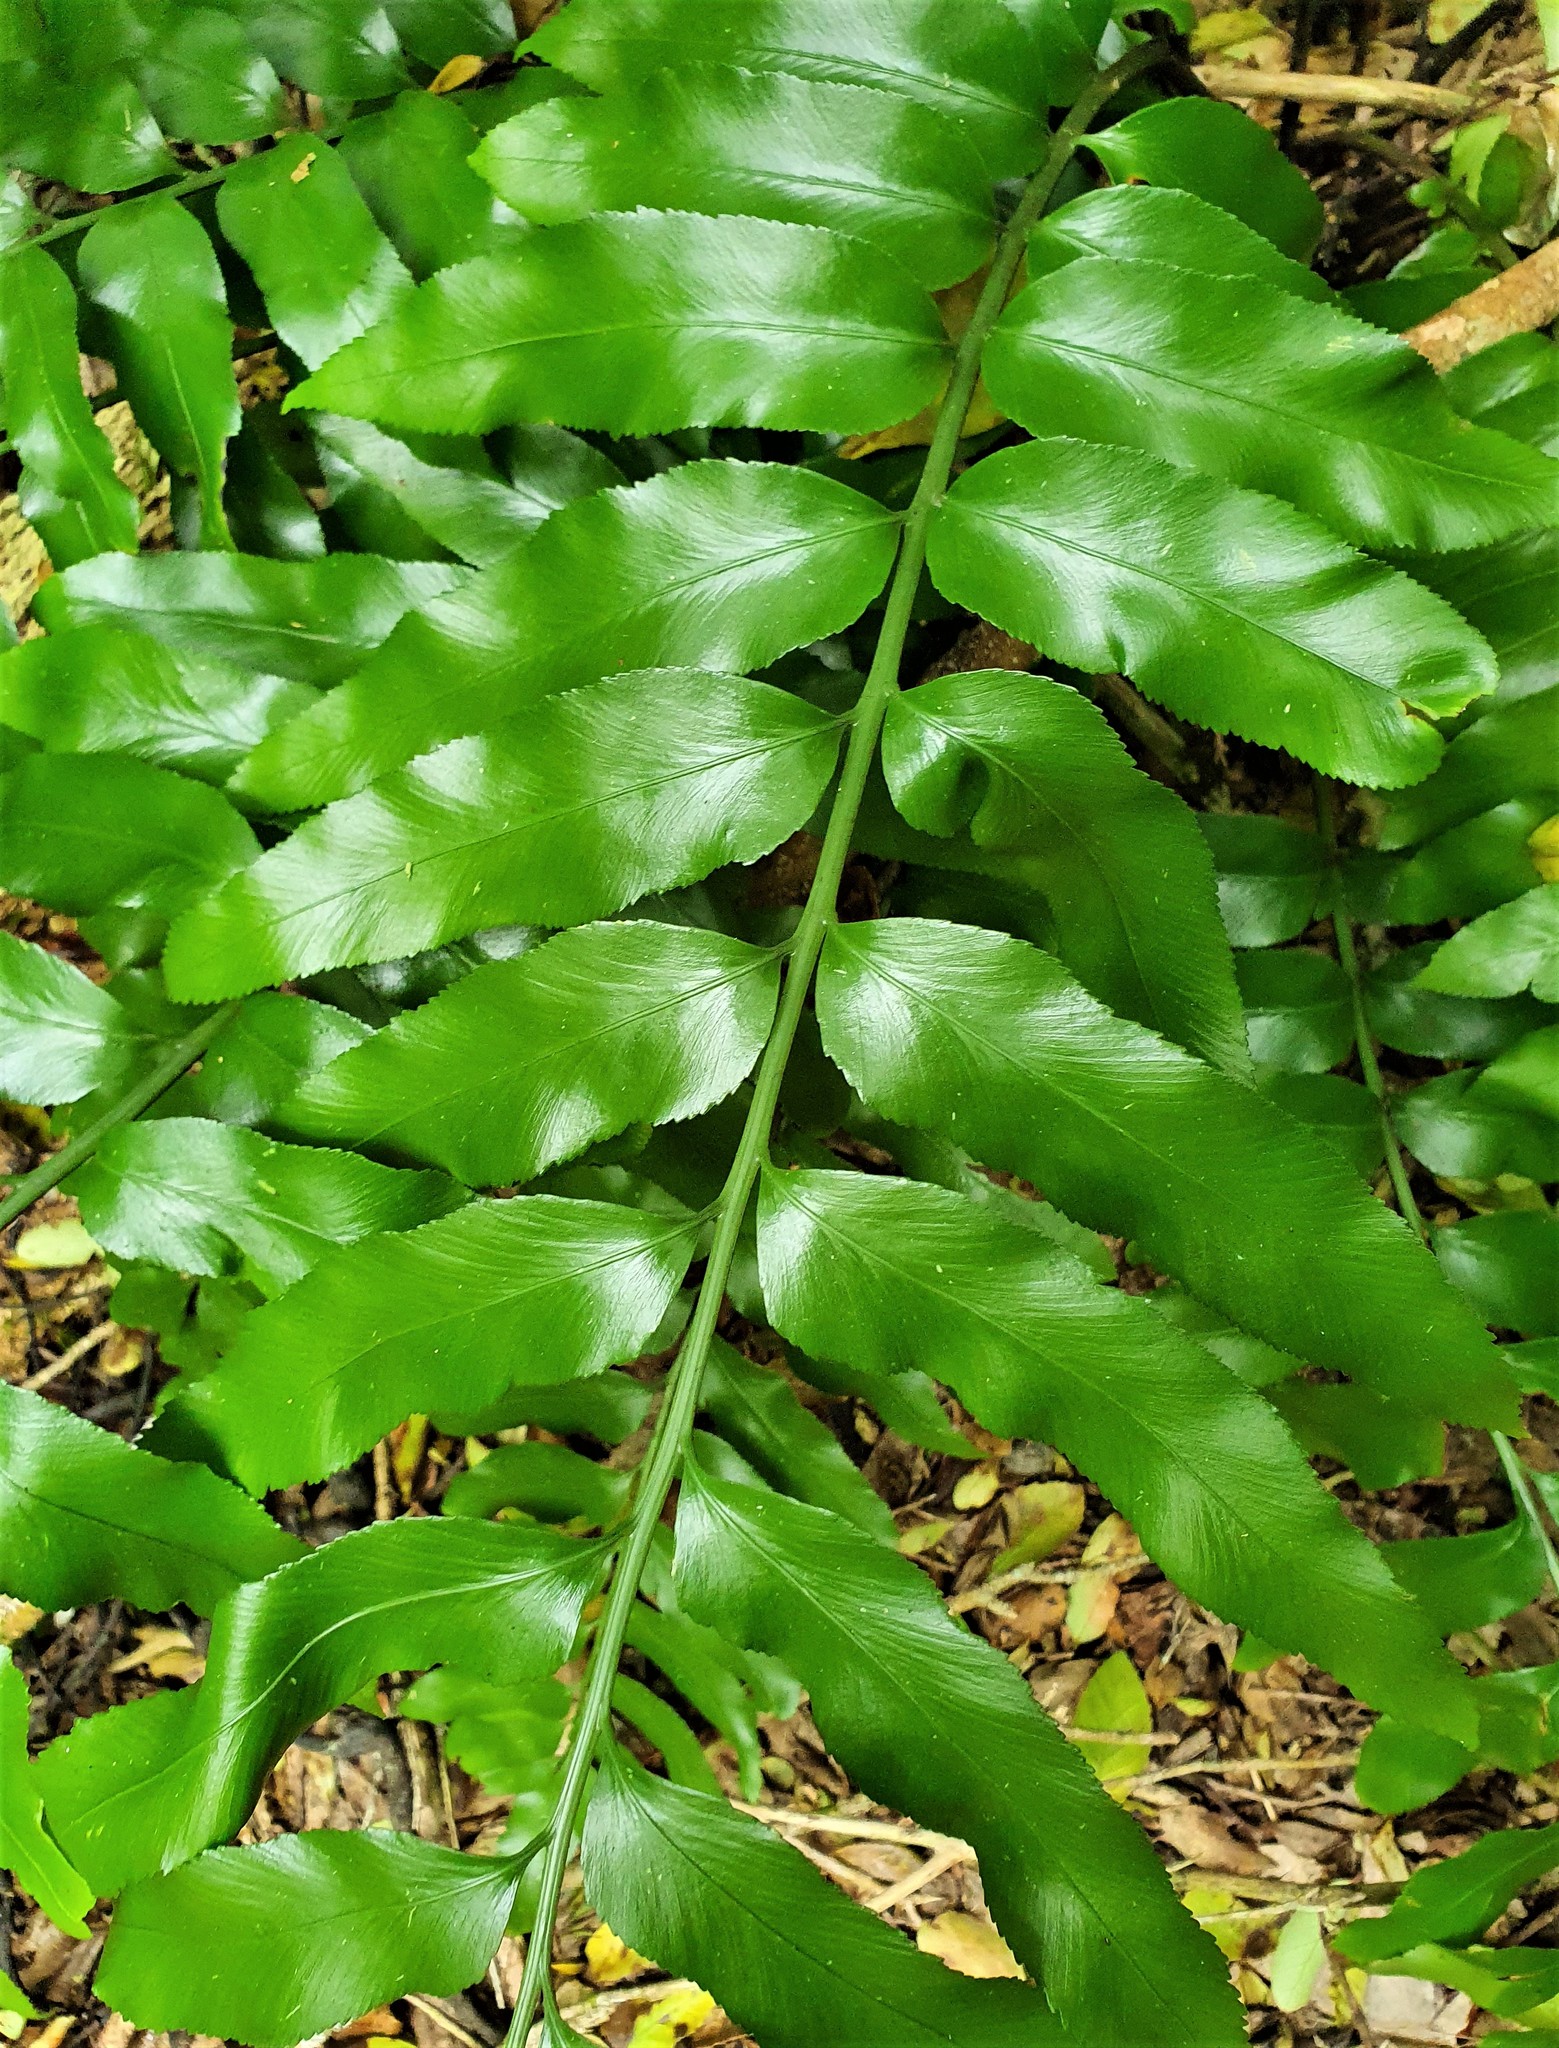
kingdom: Plantae
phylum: Tracheophyta
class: Polypodiopsida
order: Polypodiales
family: Aspleniaceae
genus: Asplenium
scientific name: Asplenium oblongifolium
